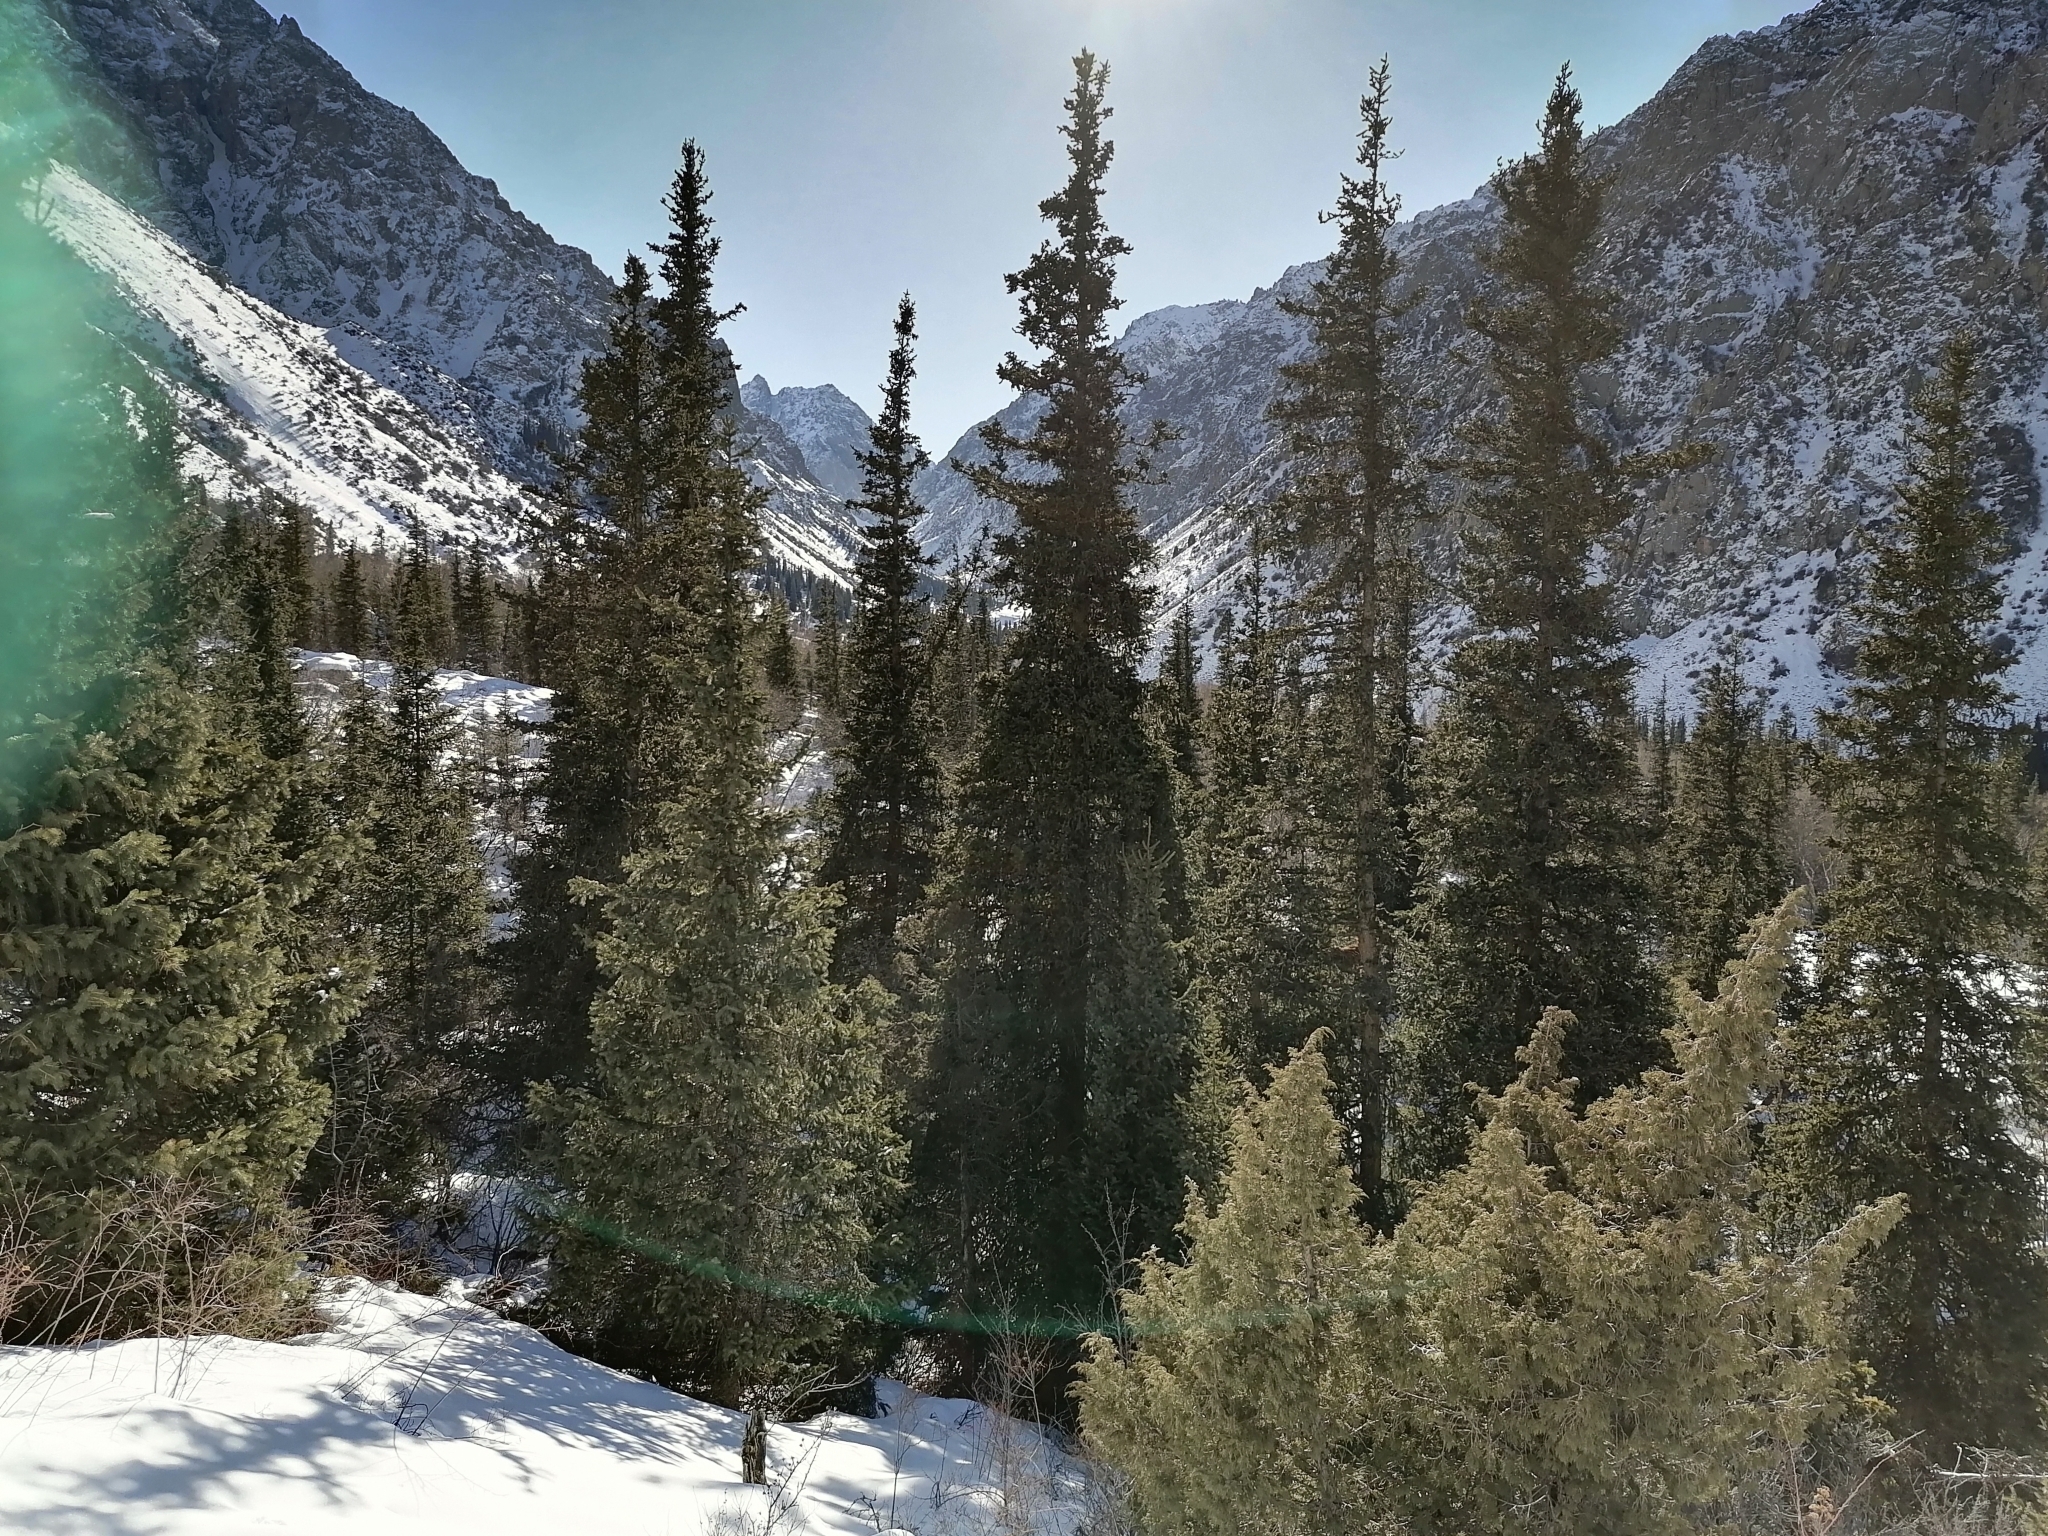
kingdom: Plantae
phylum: Tracheophyta
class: Pinopsida
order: Pinales
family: Pinaceae
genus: Picea
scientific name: Picea schrenkiana
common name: Asian spruce
